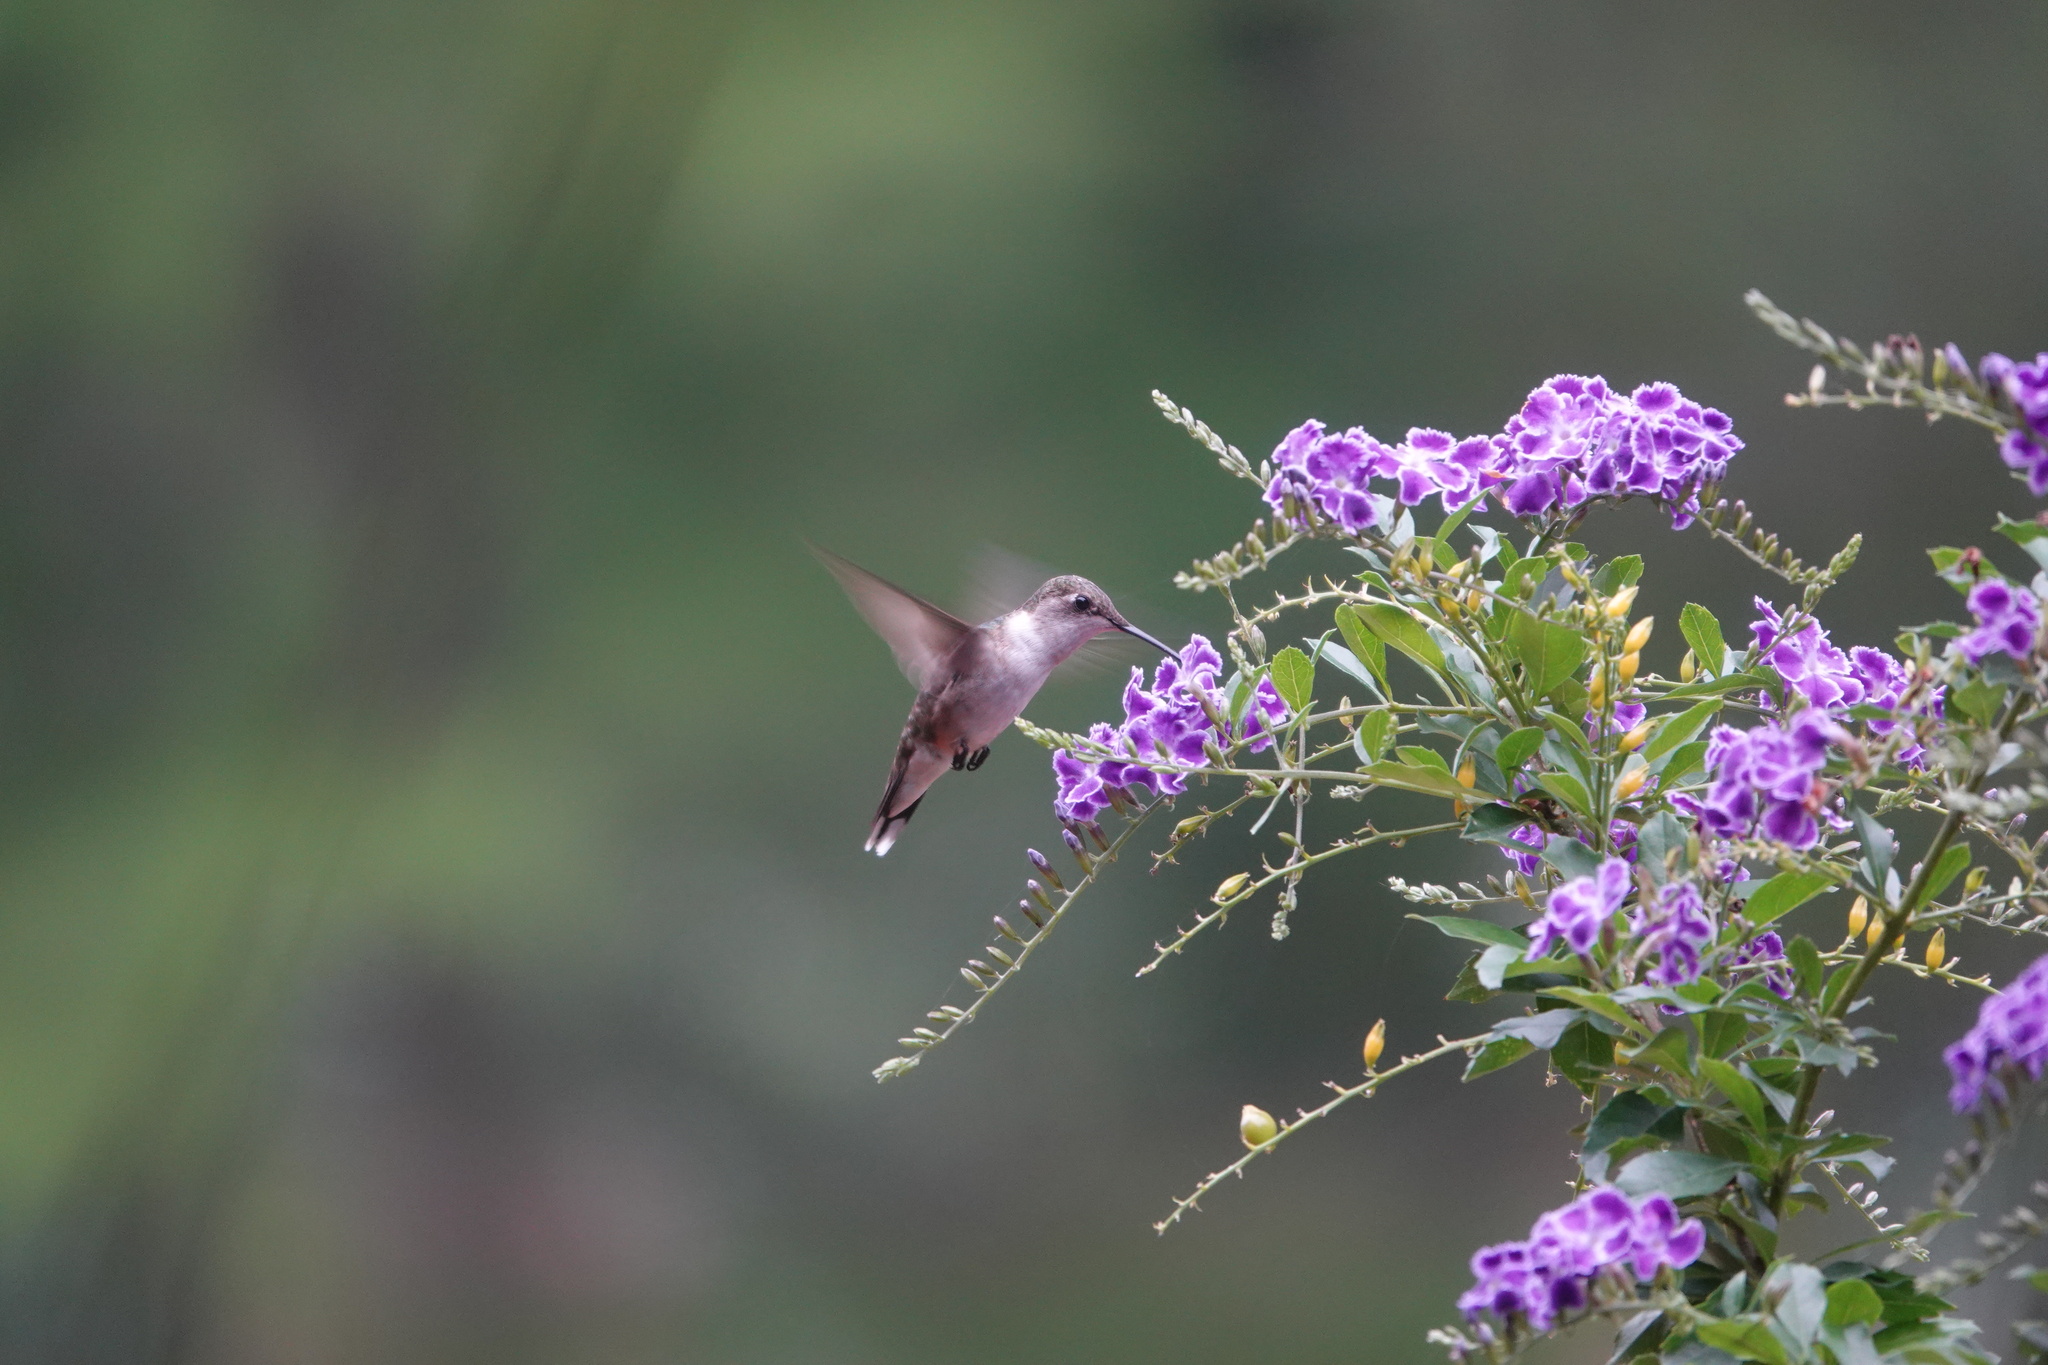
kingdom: Animalia
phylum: Chordata
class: Aves
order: Apodiformes
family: Trochilidae
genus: Archilochus
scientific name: Archilochus colubris
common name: Ruby-throated hummingbird
